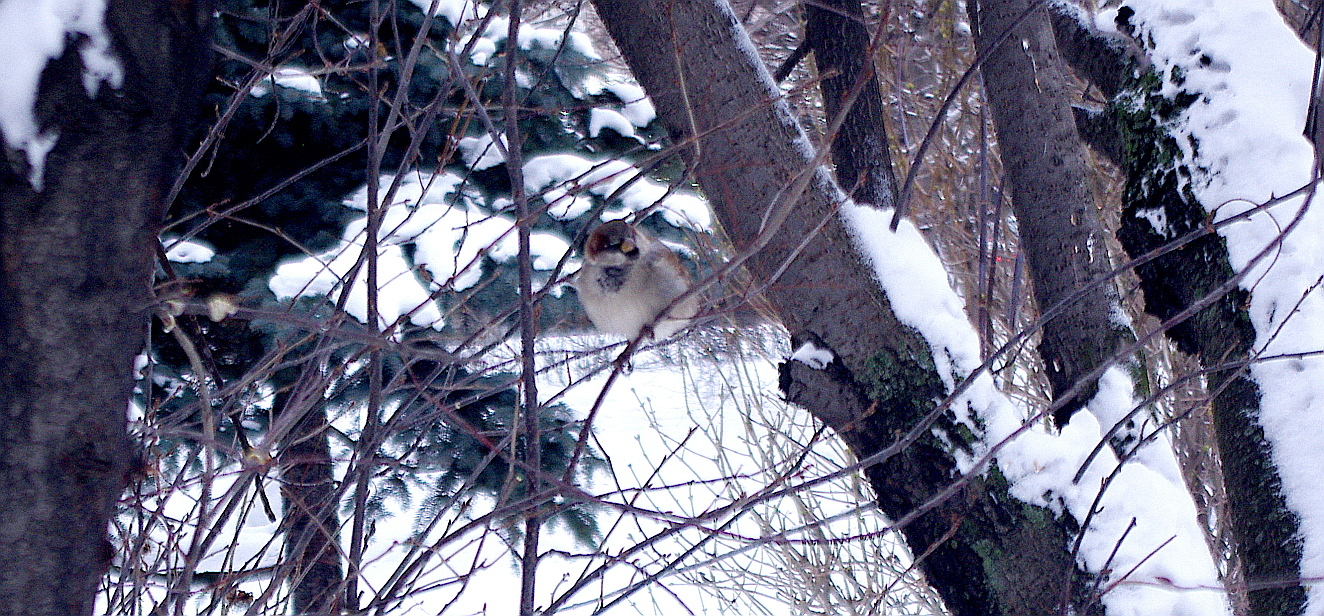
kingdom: Animalia
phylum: Chordata
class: Aves
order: Passeriformes
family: Passeridae
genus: Passer
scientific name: Passer domesticus
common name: House sparrow
